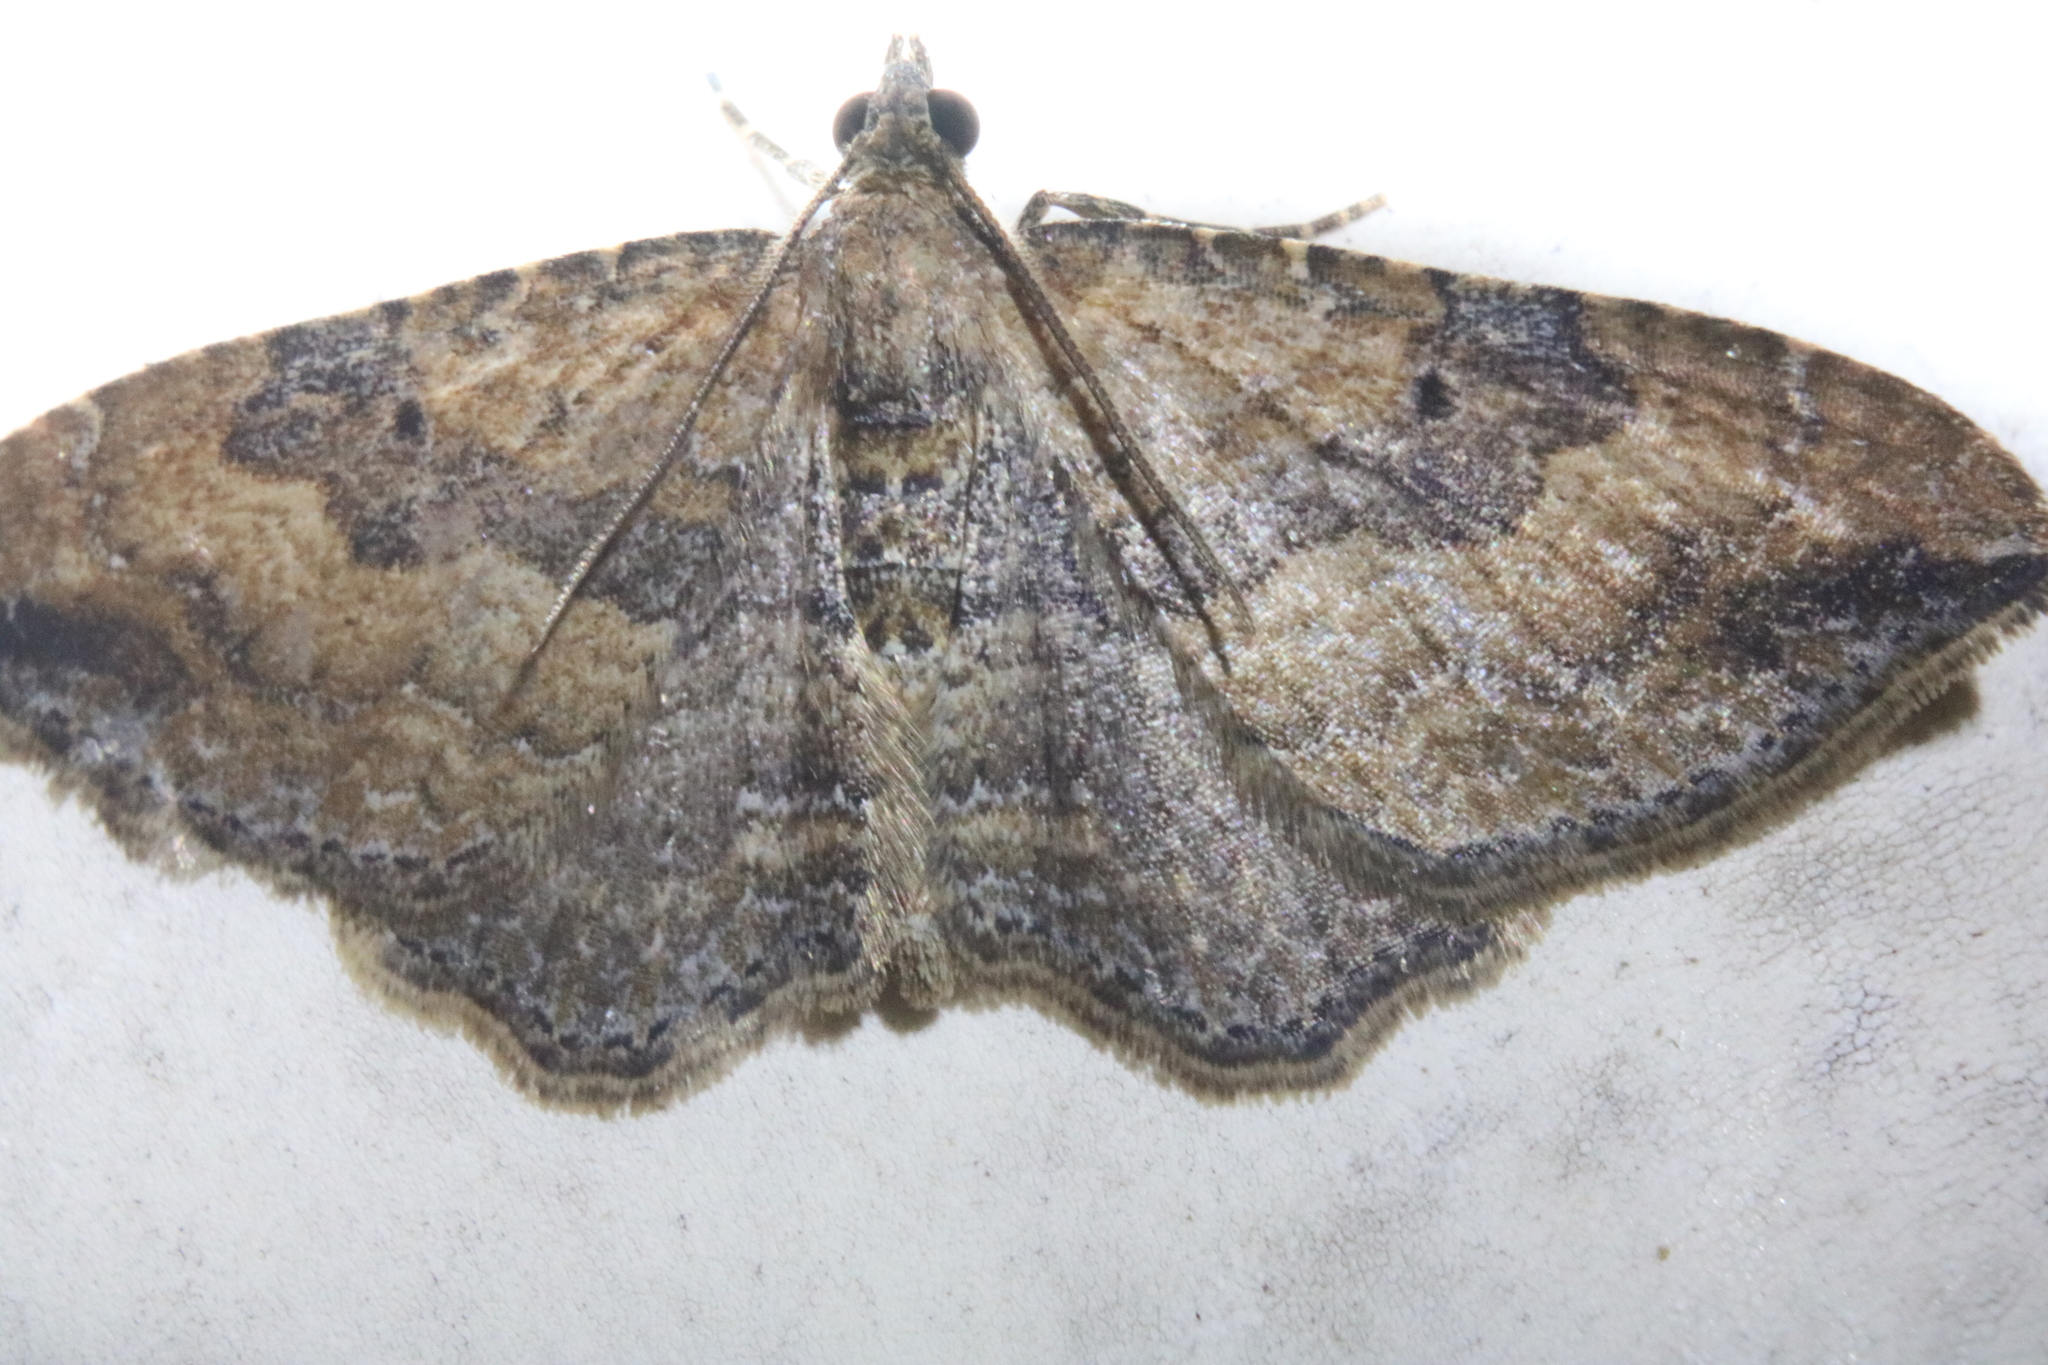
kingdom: Animalia
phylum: Arthropoda
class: Insecta
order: Lepidoptera
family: Geometridae
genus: Orthonama
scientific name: Orthonama obstipata
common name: The gem
